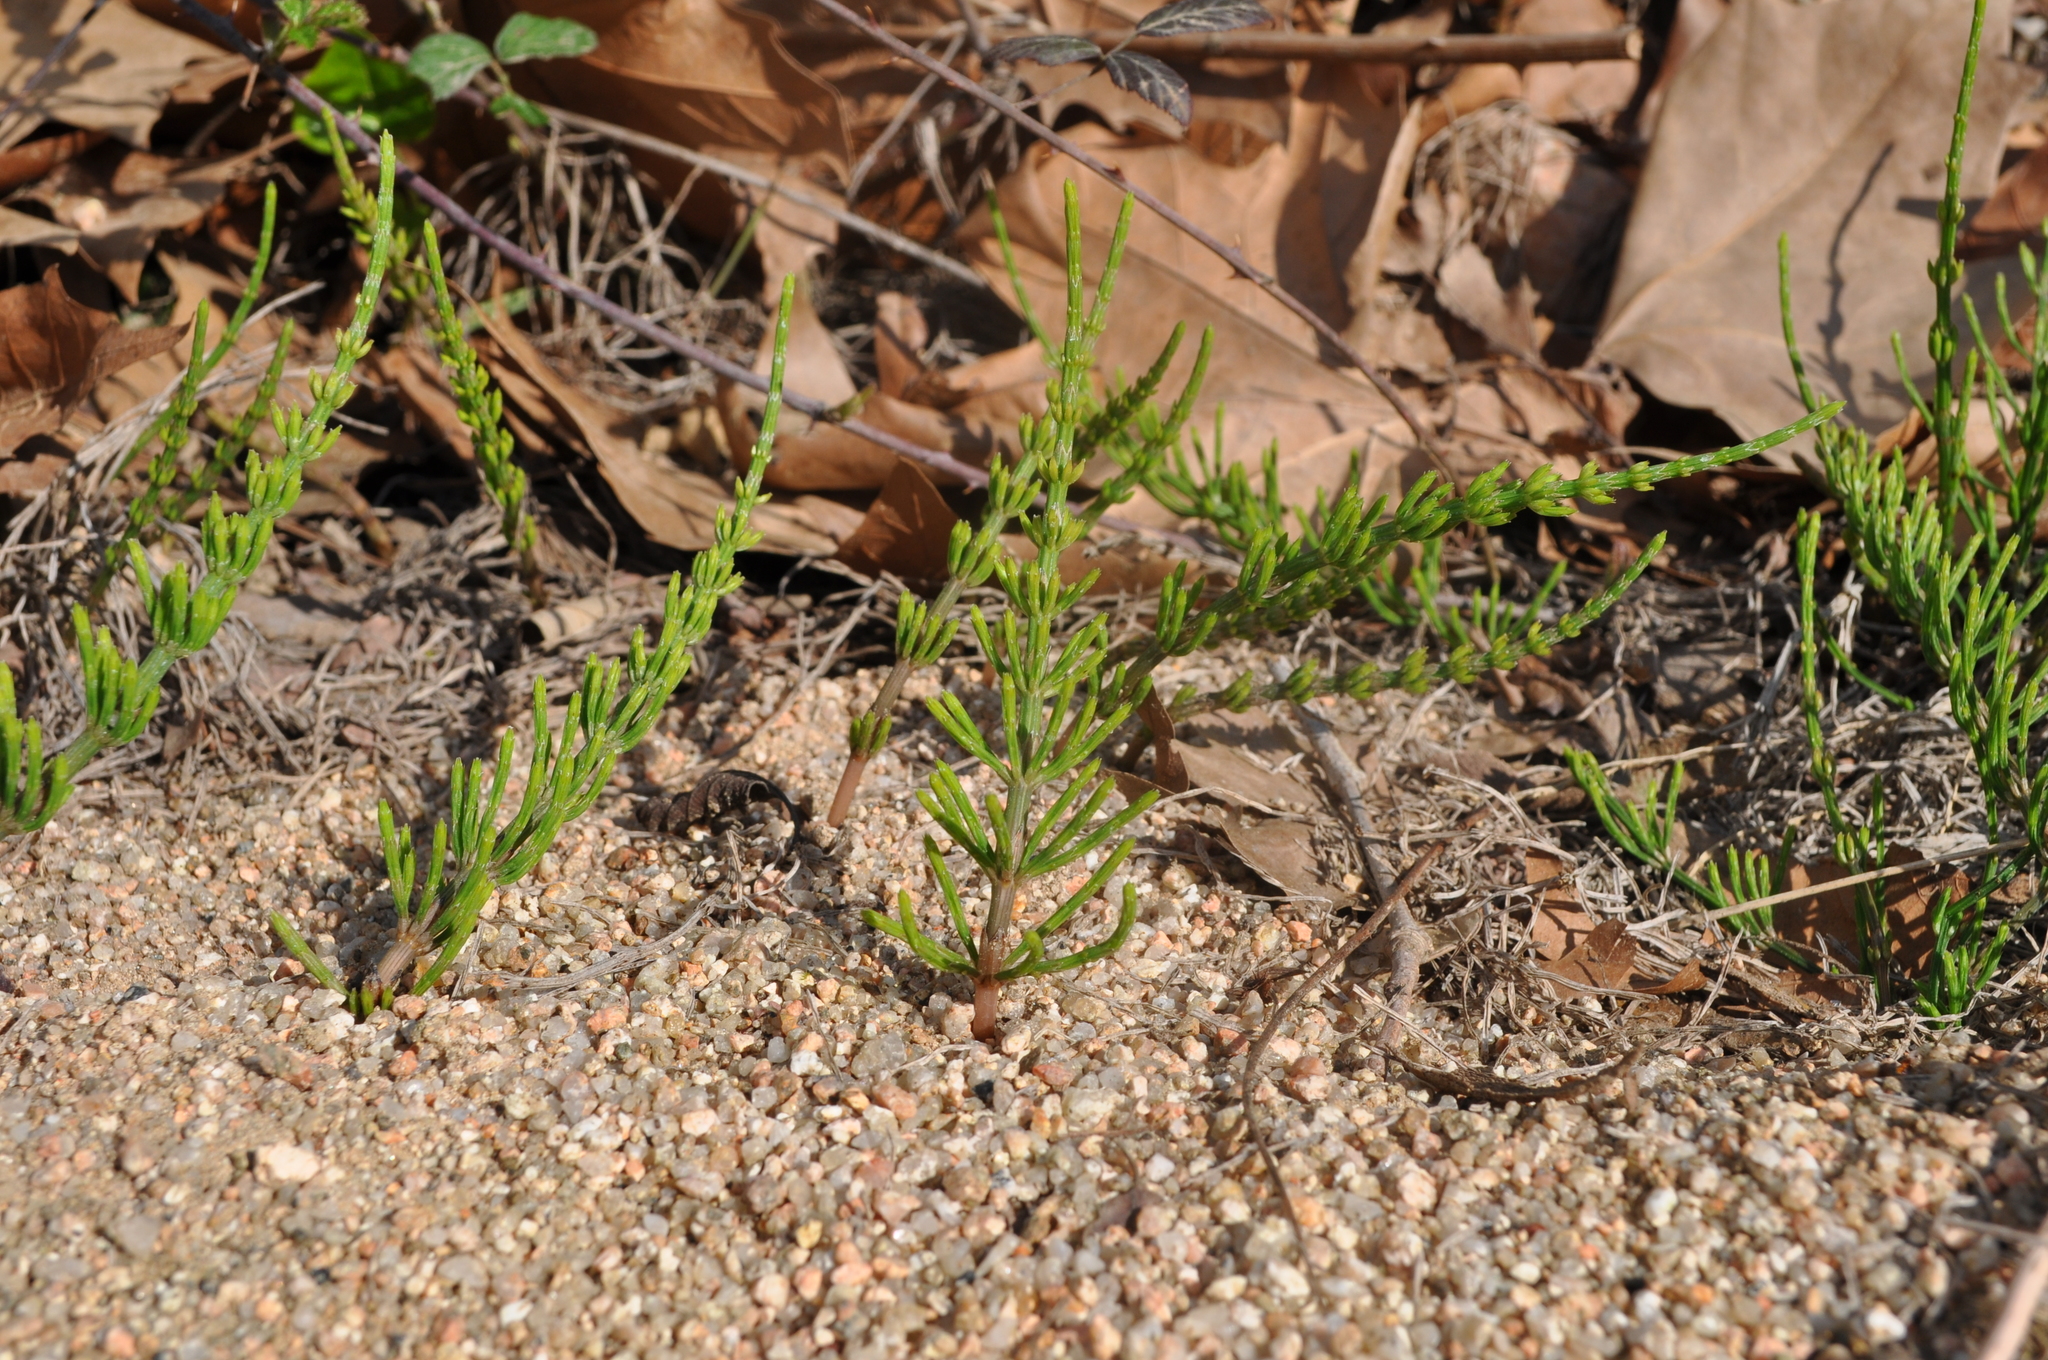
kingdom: Plantae
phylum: Tracheophyta
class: Polypodiopsida
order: Equisetales
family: Equisetaceae
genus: Equisetum
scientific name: Equisetum arvense
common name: Field horsetail
